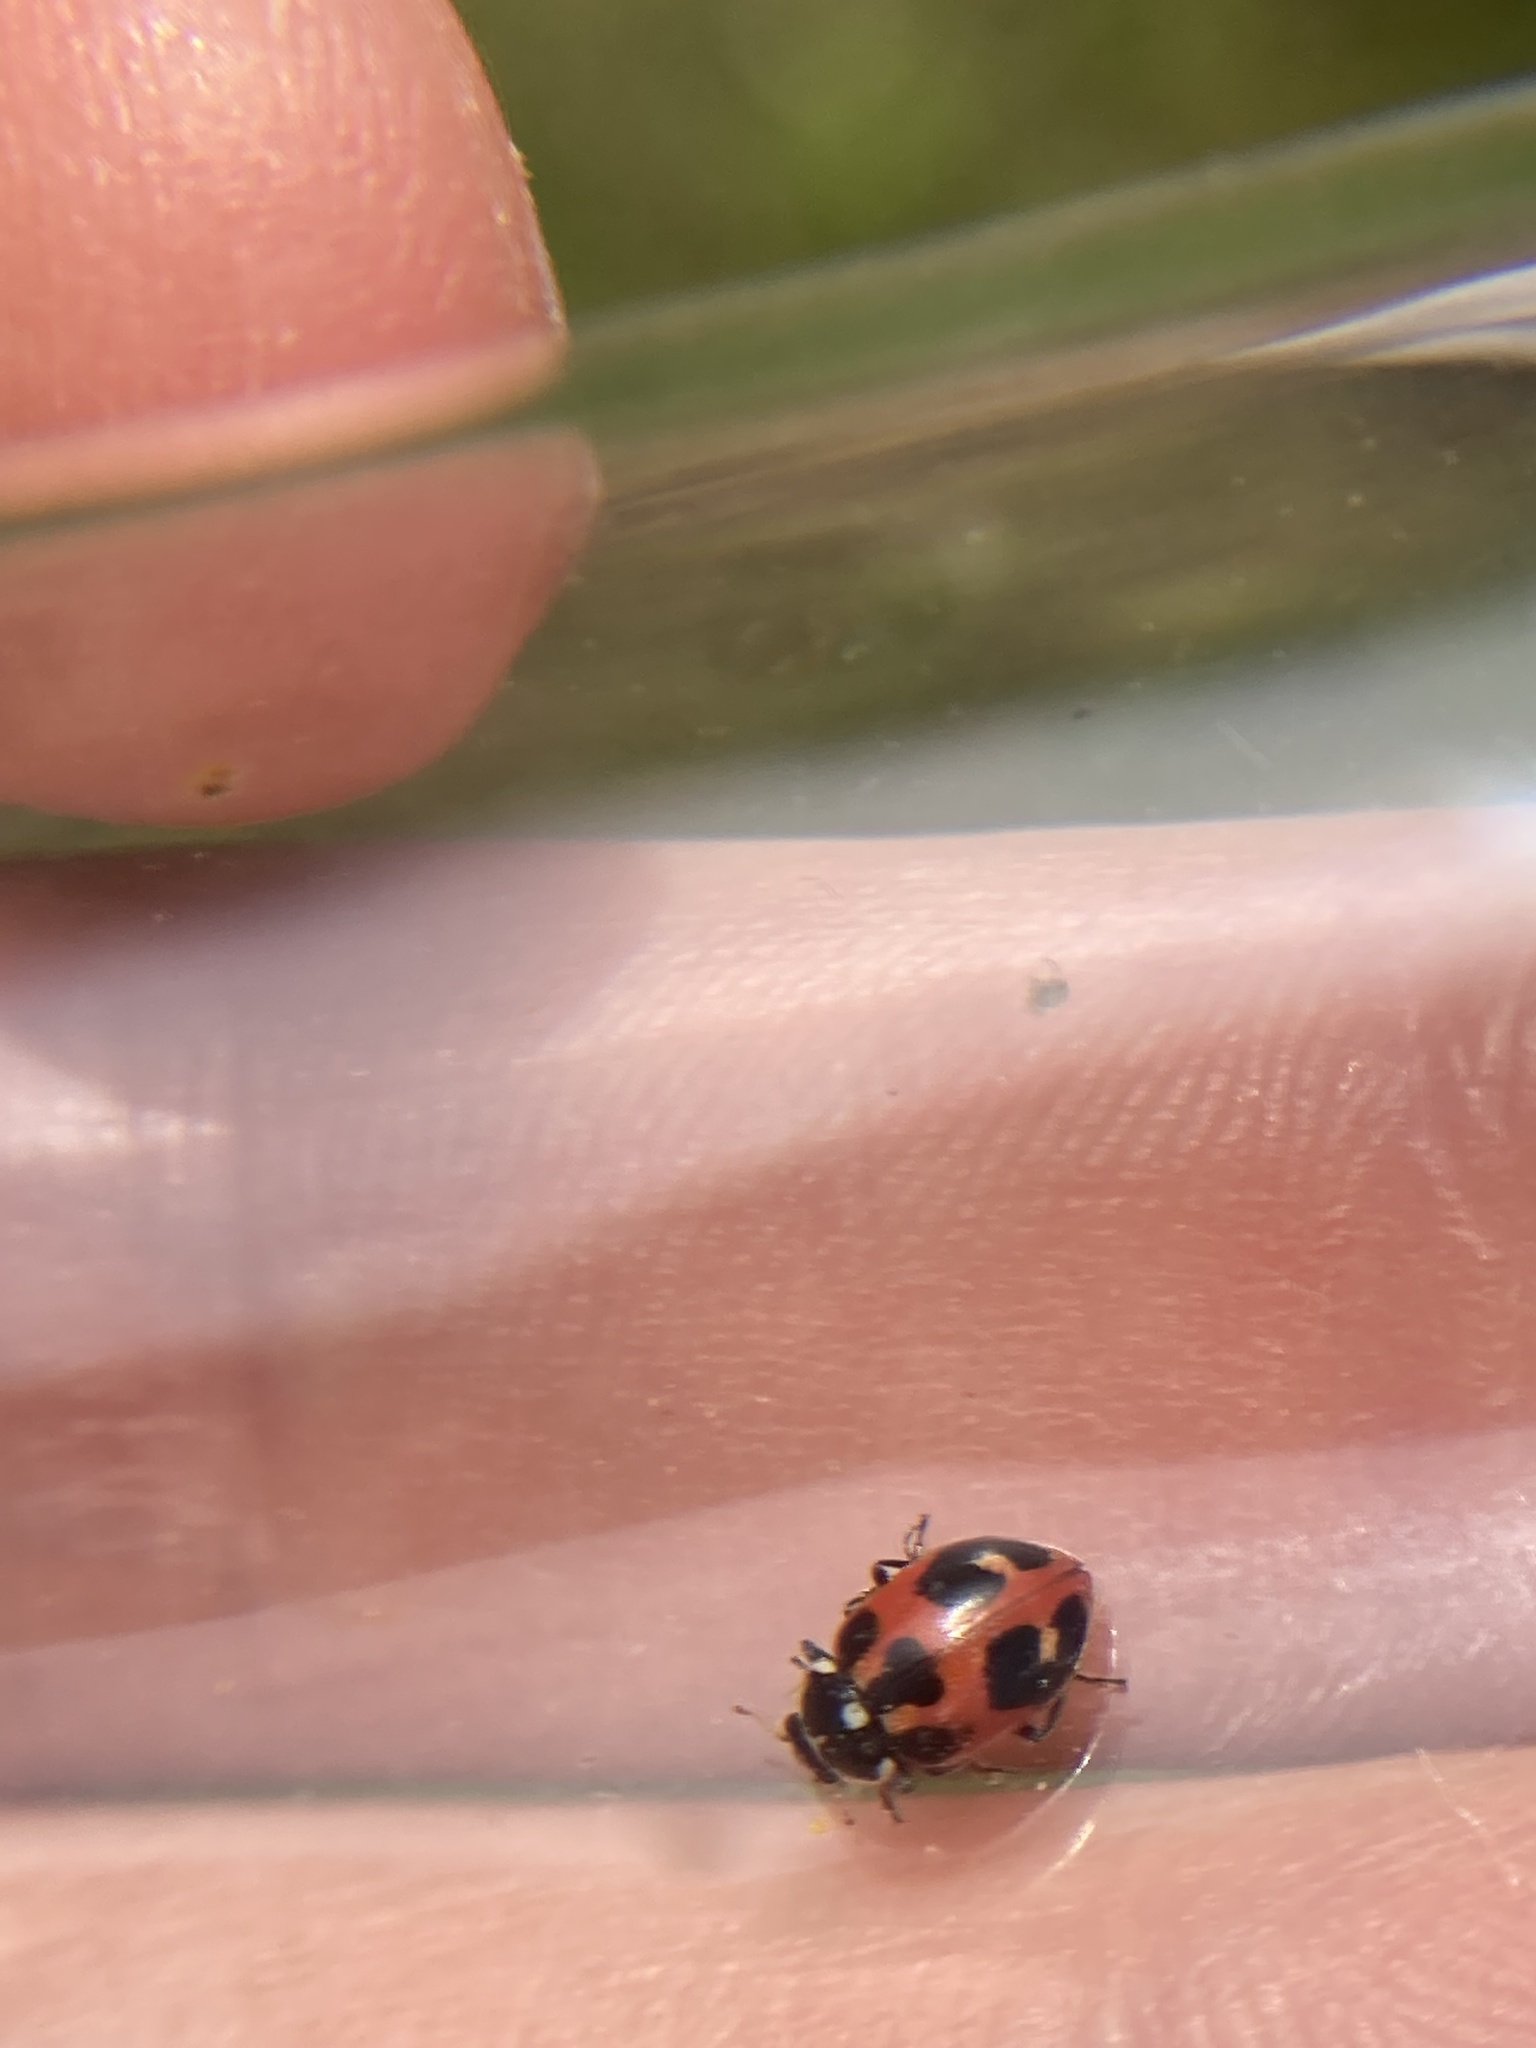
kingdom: Animalia
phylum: Arthropoda
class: Insecta
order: Coleoptera
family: Coccinellidae
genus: Hippodamia
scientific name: Hippodamia parenthesis
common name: Parenthesis lady beetle
